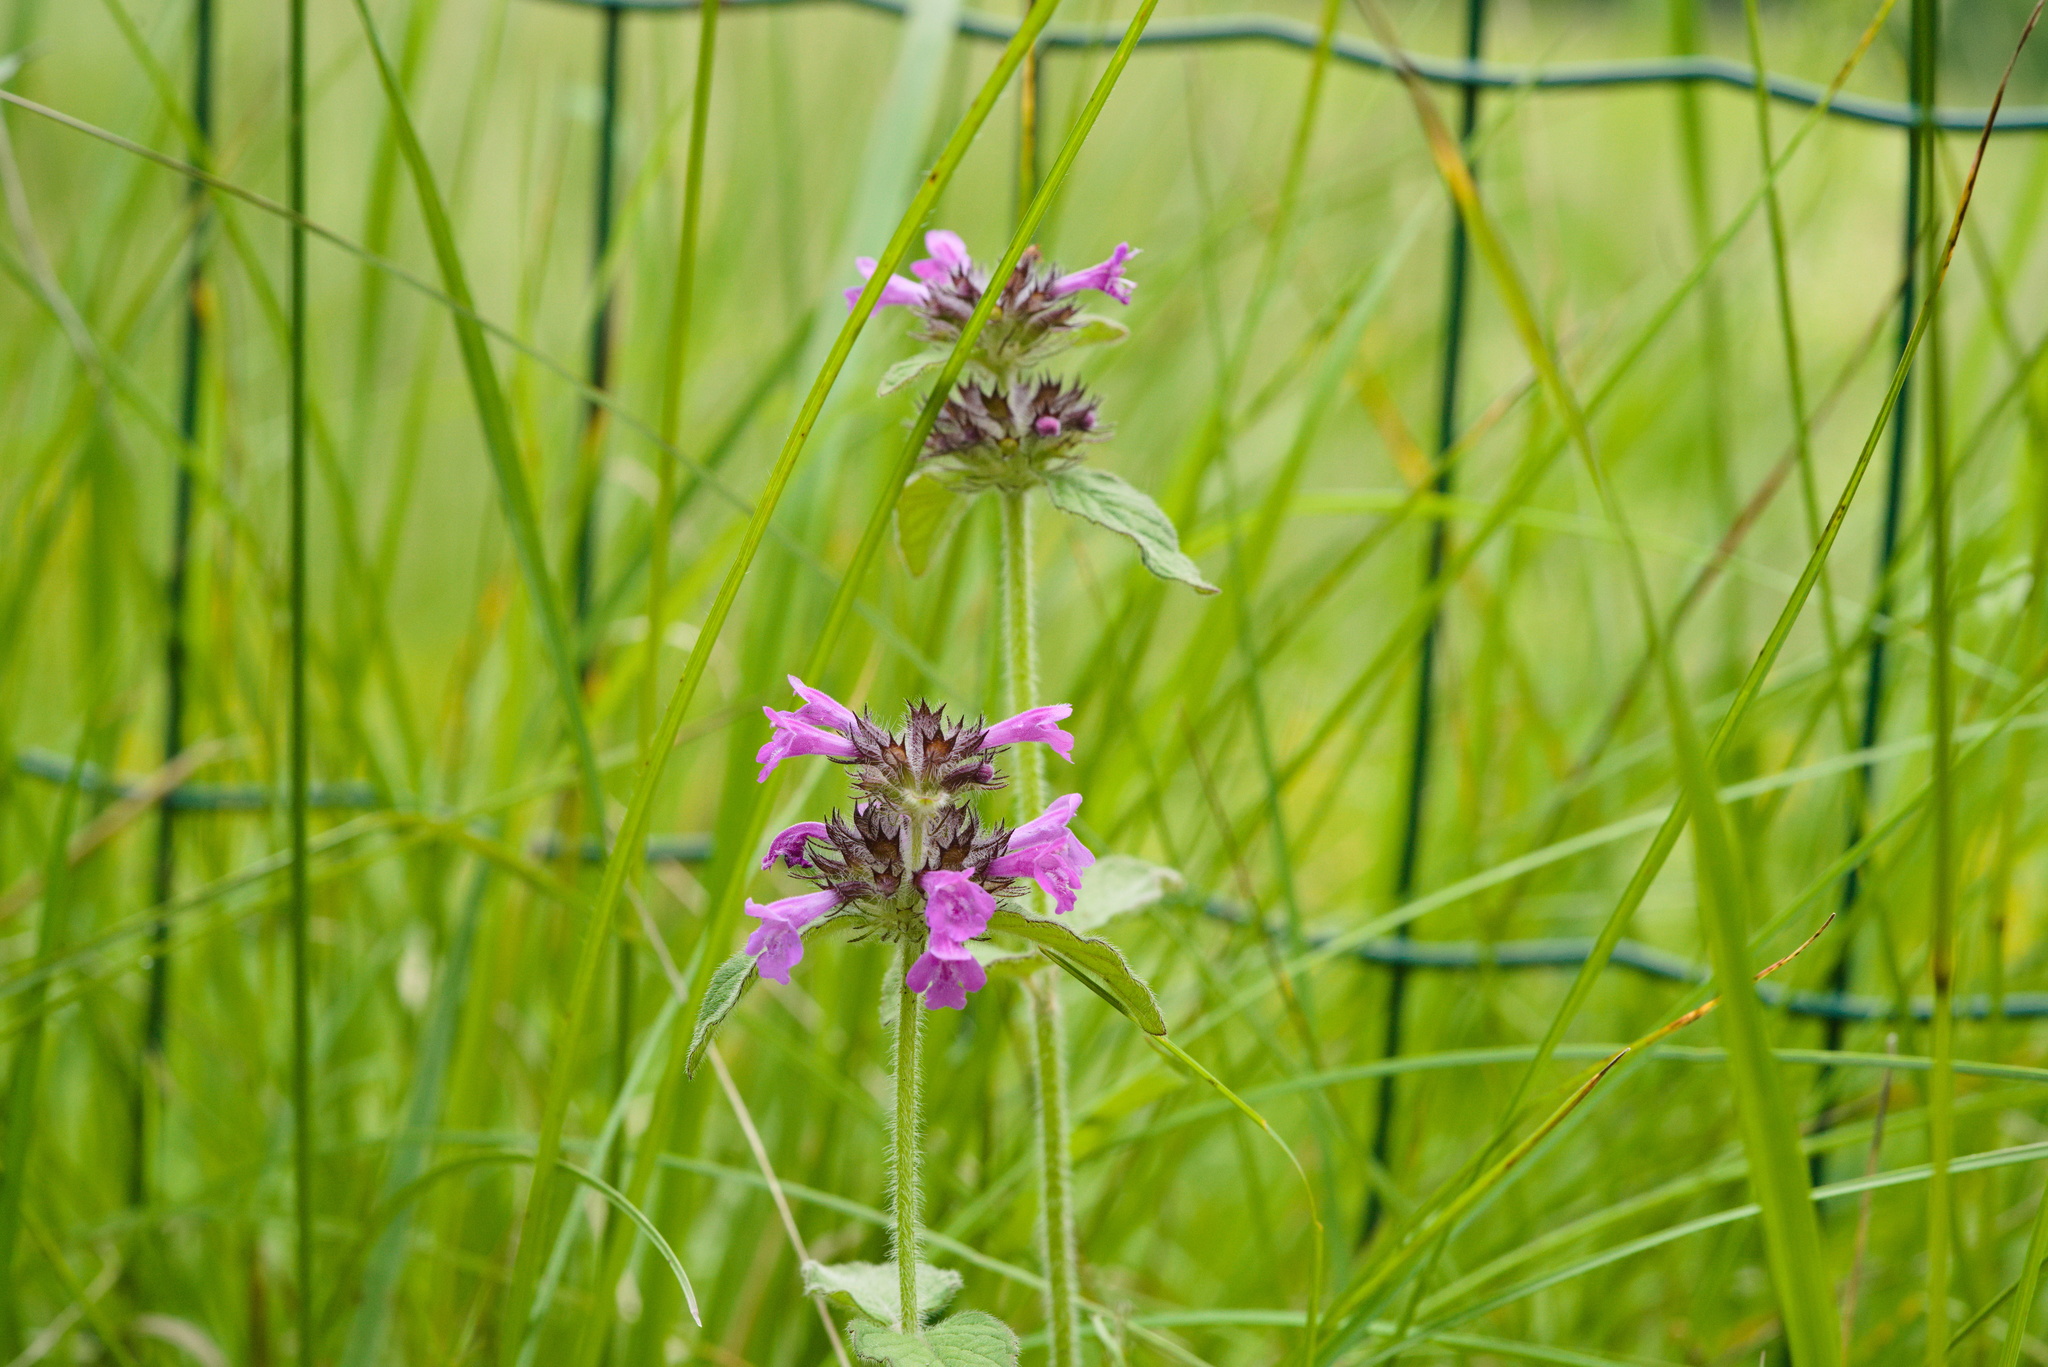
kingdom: Plantae
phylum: Tracheophyta
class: Magnoliopsida
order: Lamiales
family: Lamiaceae
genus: Betonica
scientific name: Betonica officinalis
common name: Bishop's-wort
